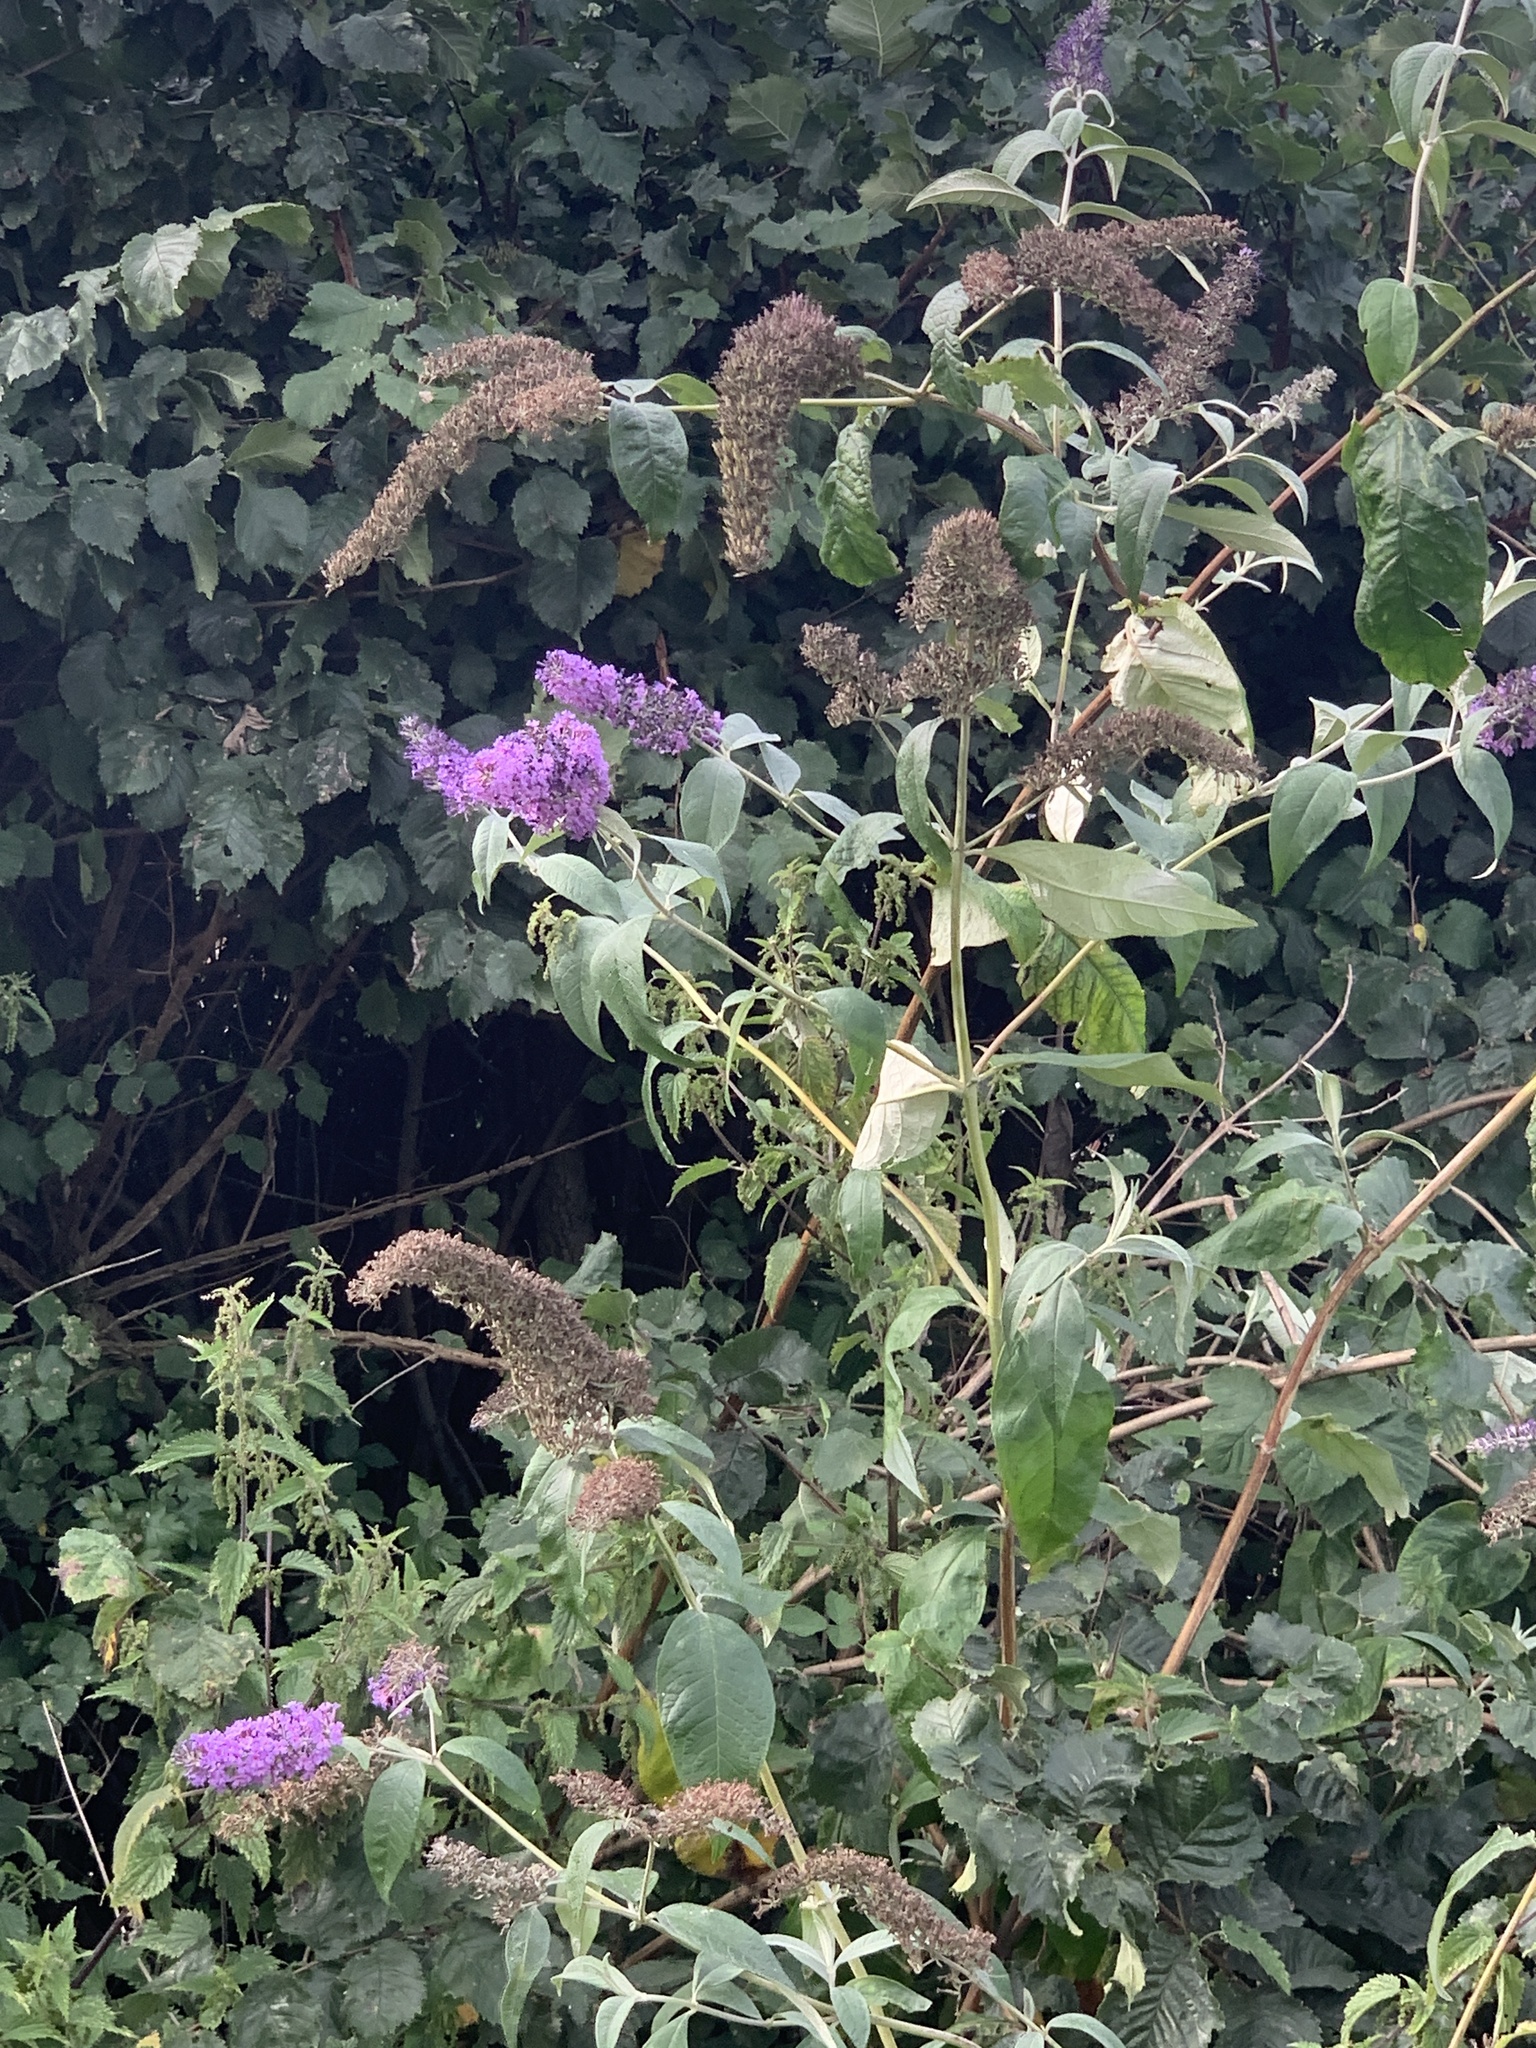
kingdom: Plantae
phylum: Tracheophyta
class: Magnoliopsida
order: Lamiales
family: Scrophulariaceae
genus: Buddleja
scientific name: Buddleja davidii
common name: Butterfly-bush
